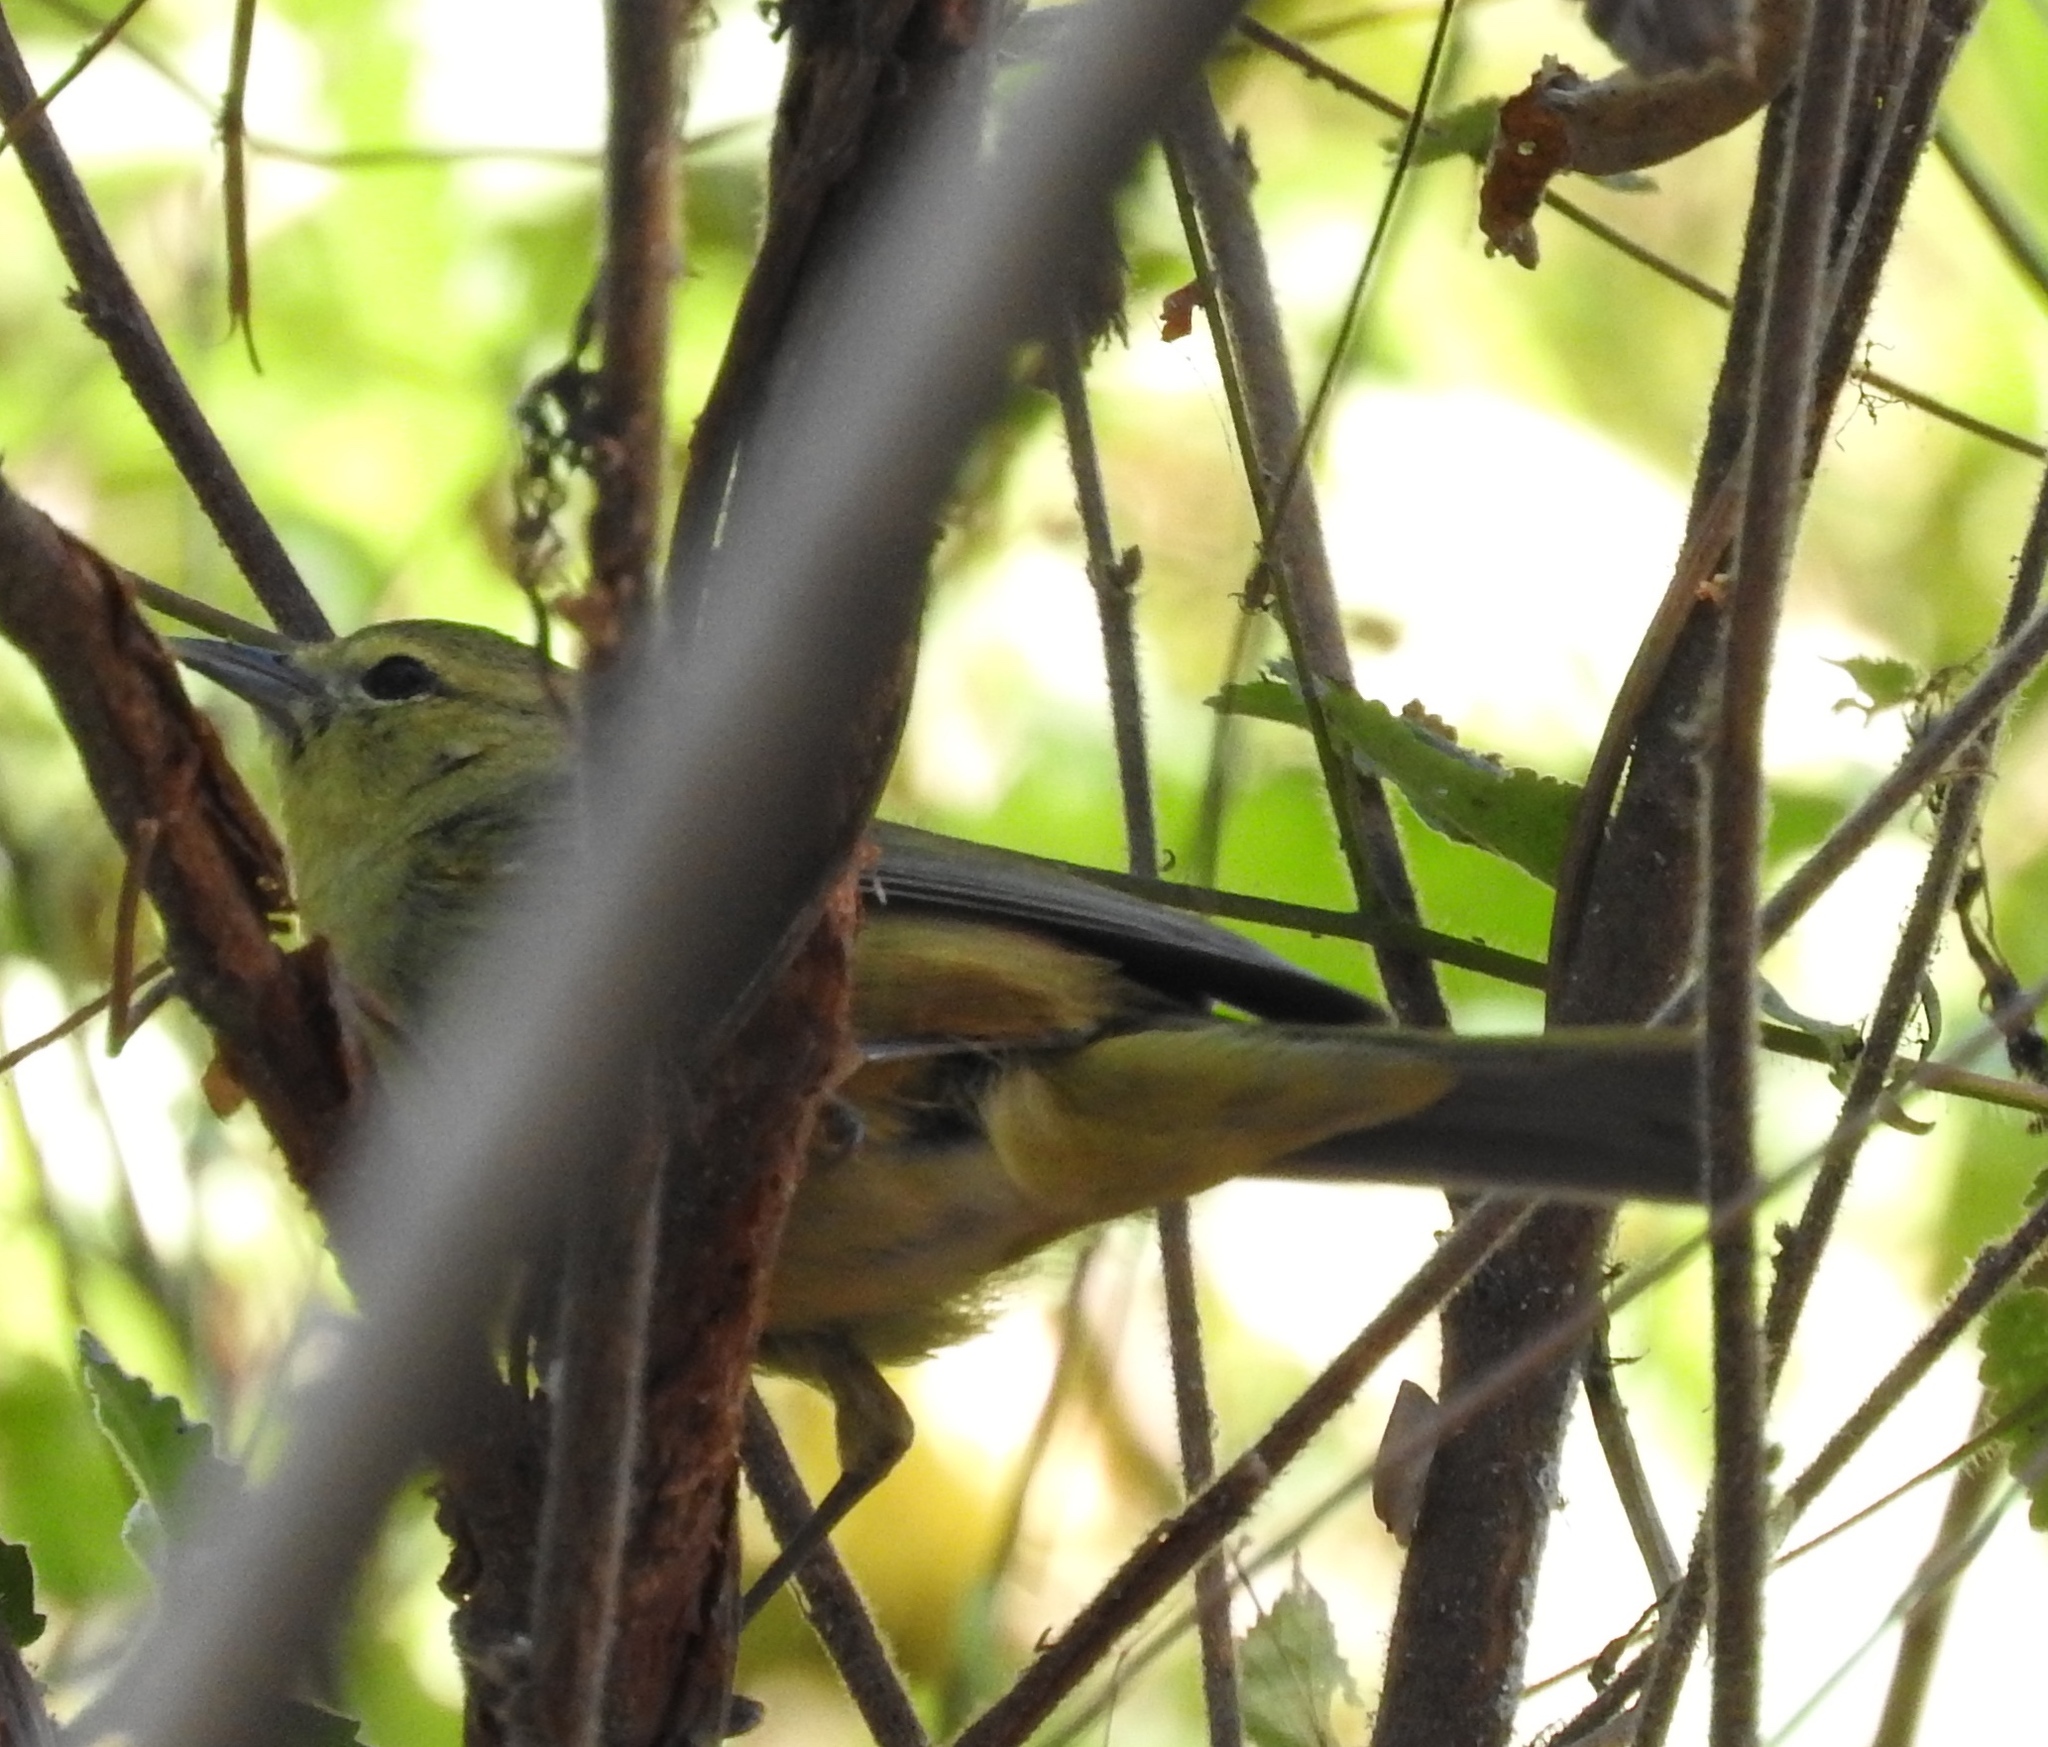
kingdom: Animalia
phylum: Chordata
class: Aves
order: Passeriformes
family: Parulidae
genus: Leiothlypis
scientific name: Leiothlypis celata
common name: Orange-crowned warbler
